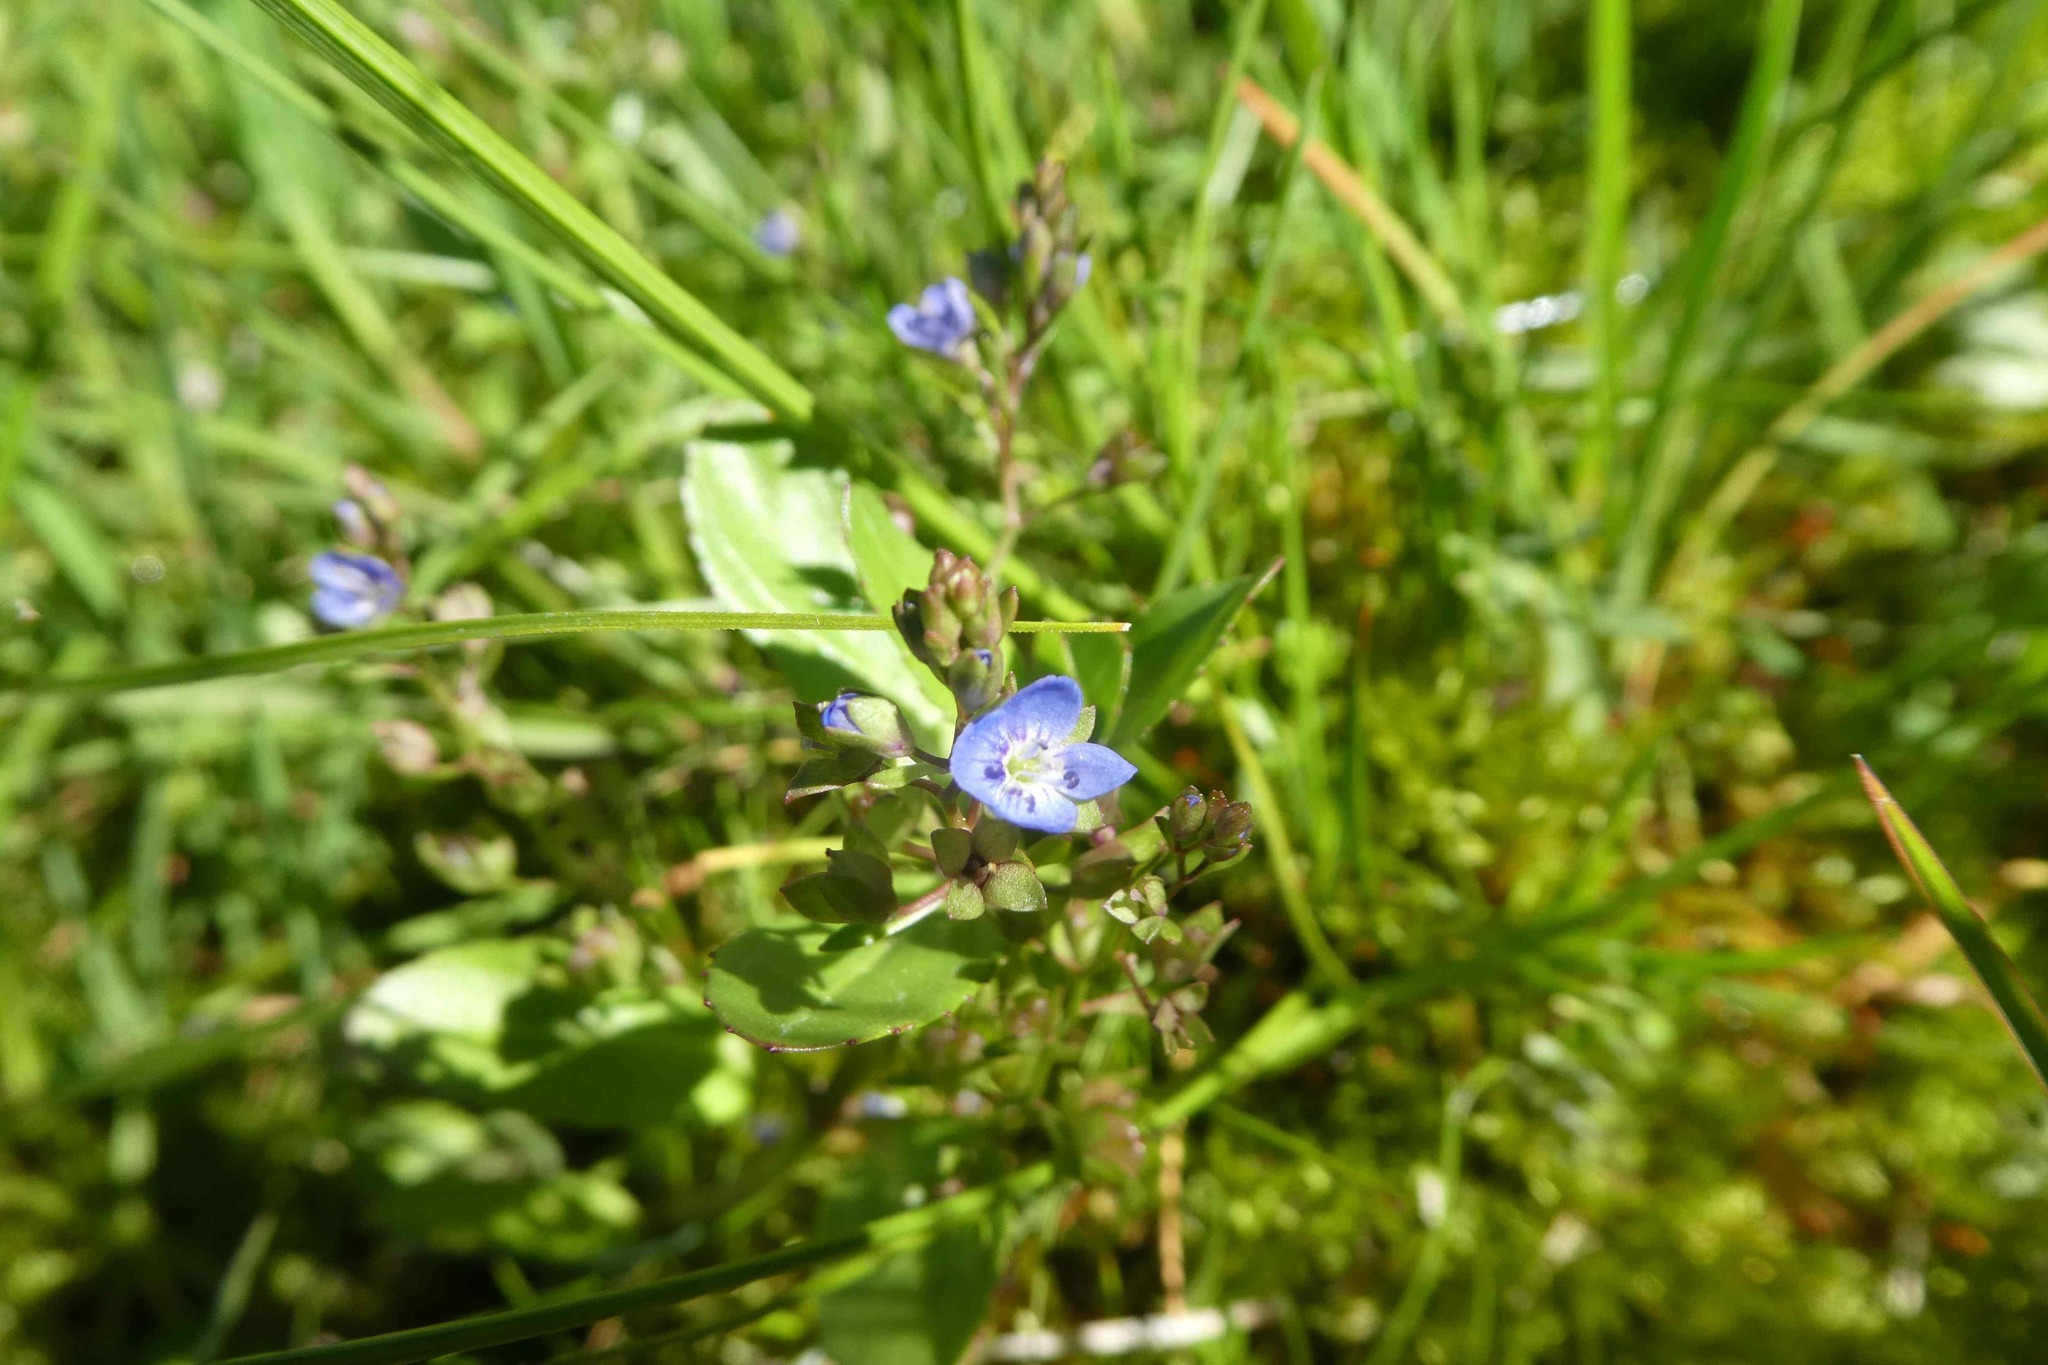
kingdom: Plantae
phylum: Tracheophyta
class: Magnoliopsida
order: Lamiales
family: Plantaginaceae
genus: Veronica
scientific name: Veronica beccabunga
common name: Brooklime
